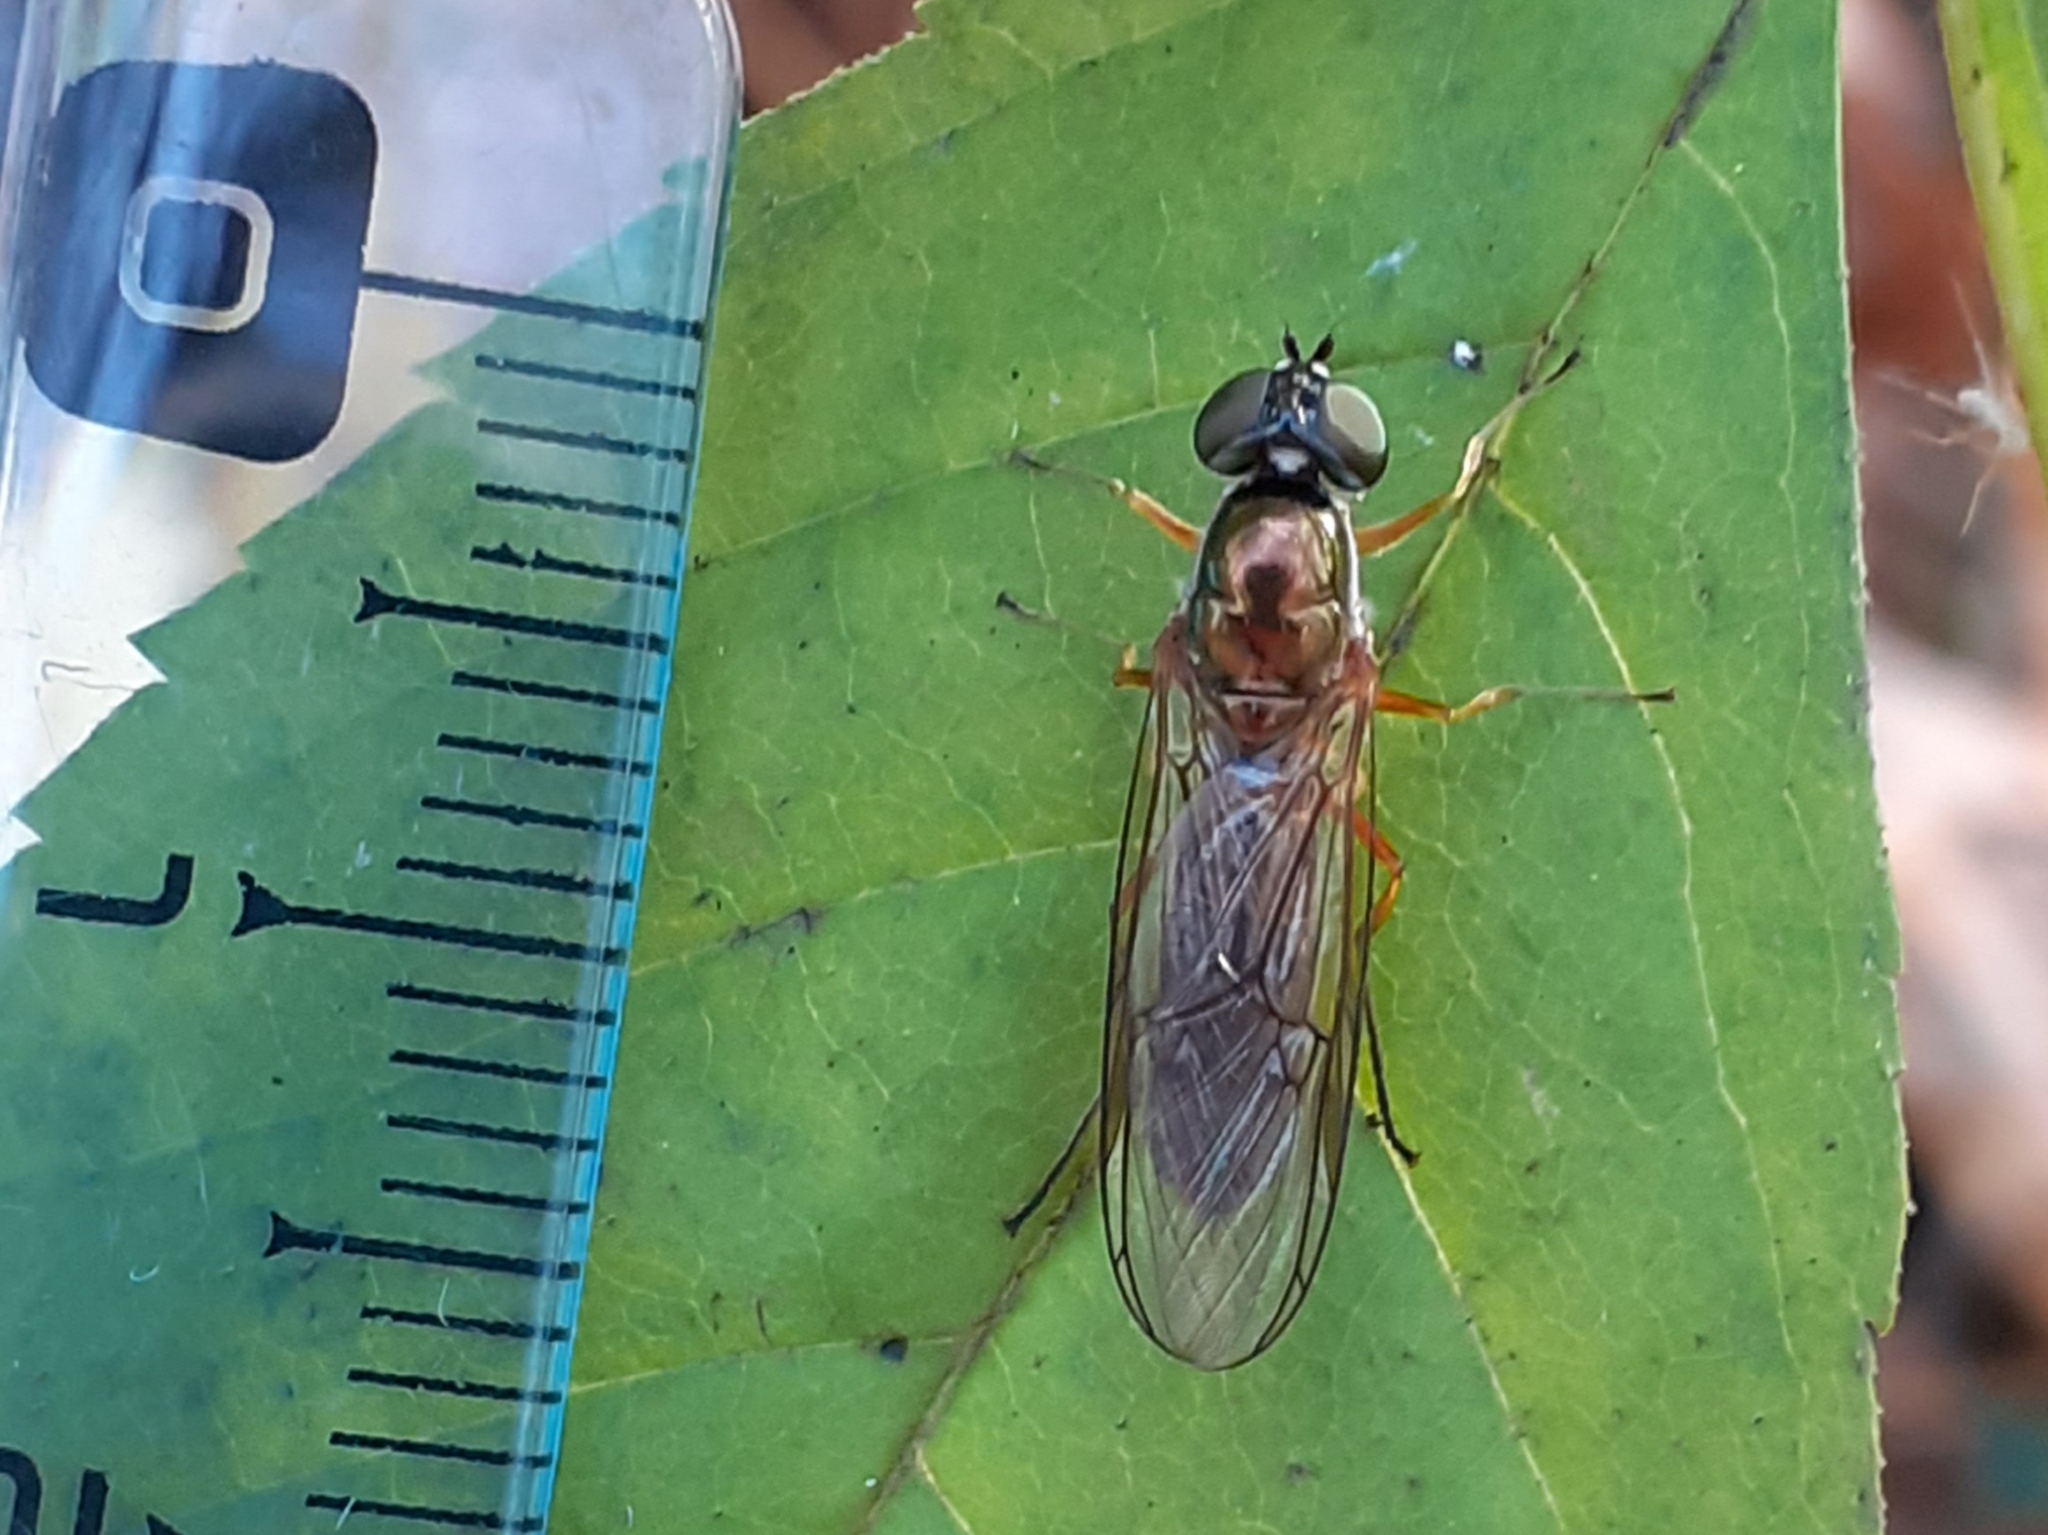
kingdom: Animalia
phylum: Arthropoda
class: Insecta
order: Diptera
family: Stratiomyidae
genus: Sargus
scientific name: Sargus bipunctatus
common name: Twin-spot centurion
